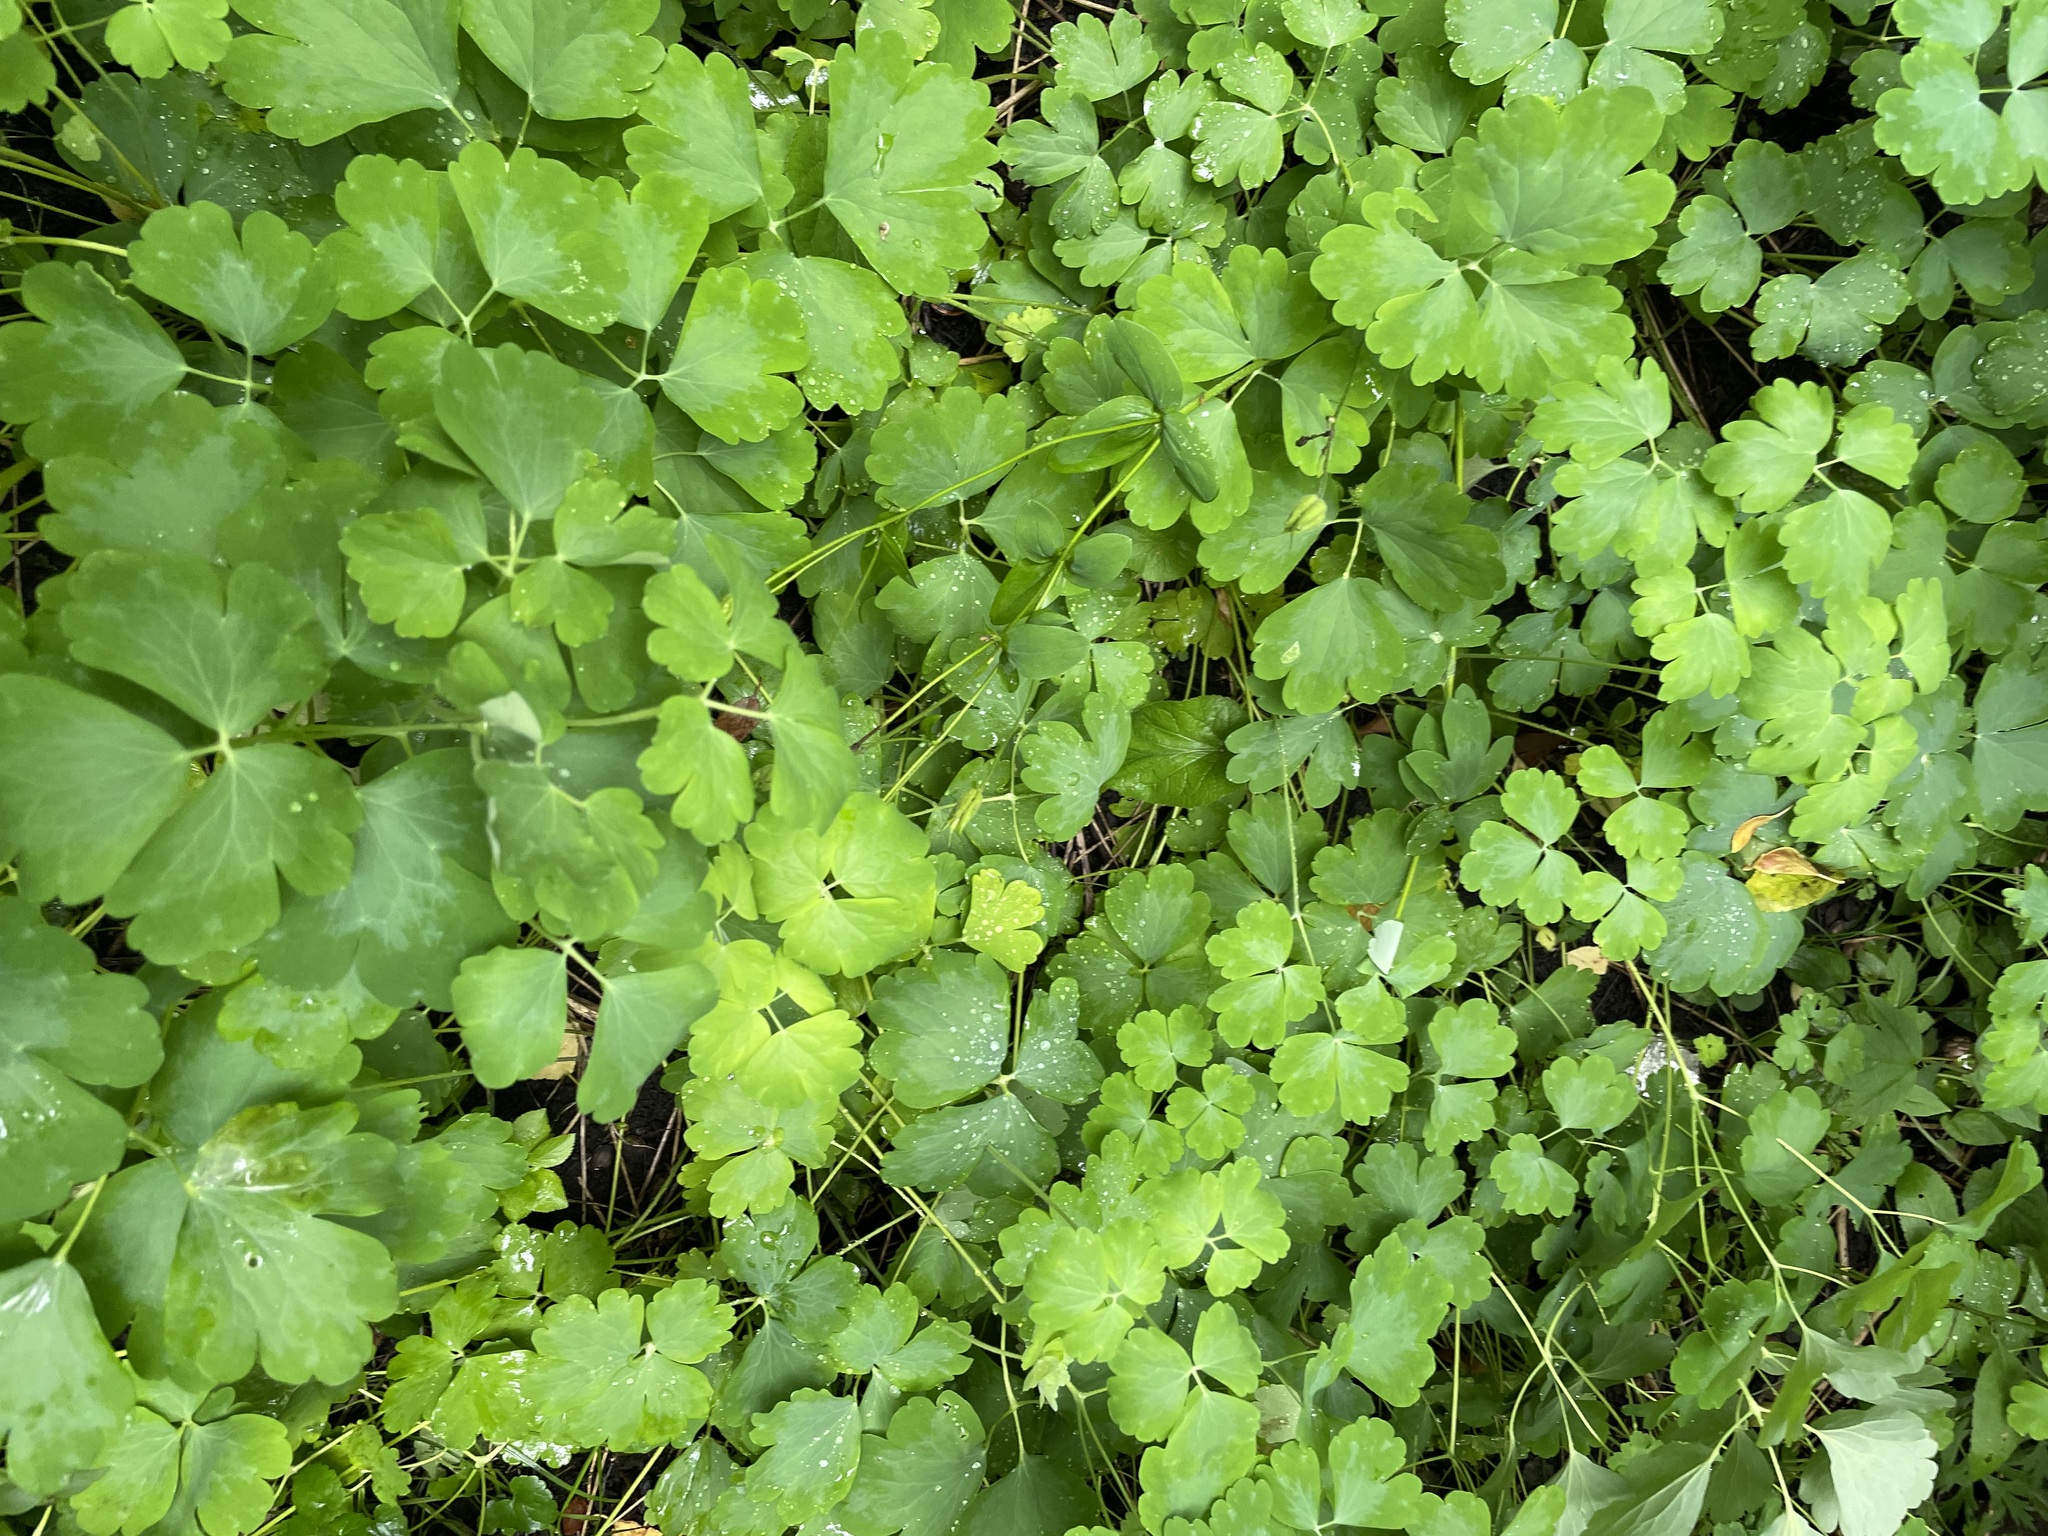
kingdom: Plantae
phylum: Tracheophyta
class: Magnoliopsida
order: Ranunculales
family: Ranunculaceae
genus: Aquilegia
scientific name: Aquilegia vulgaris
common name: Columbine
